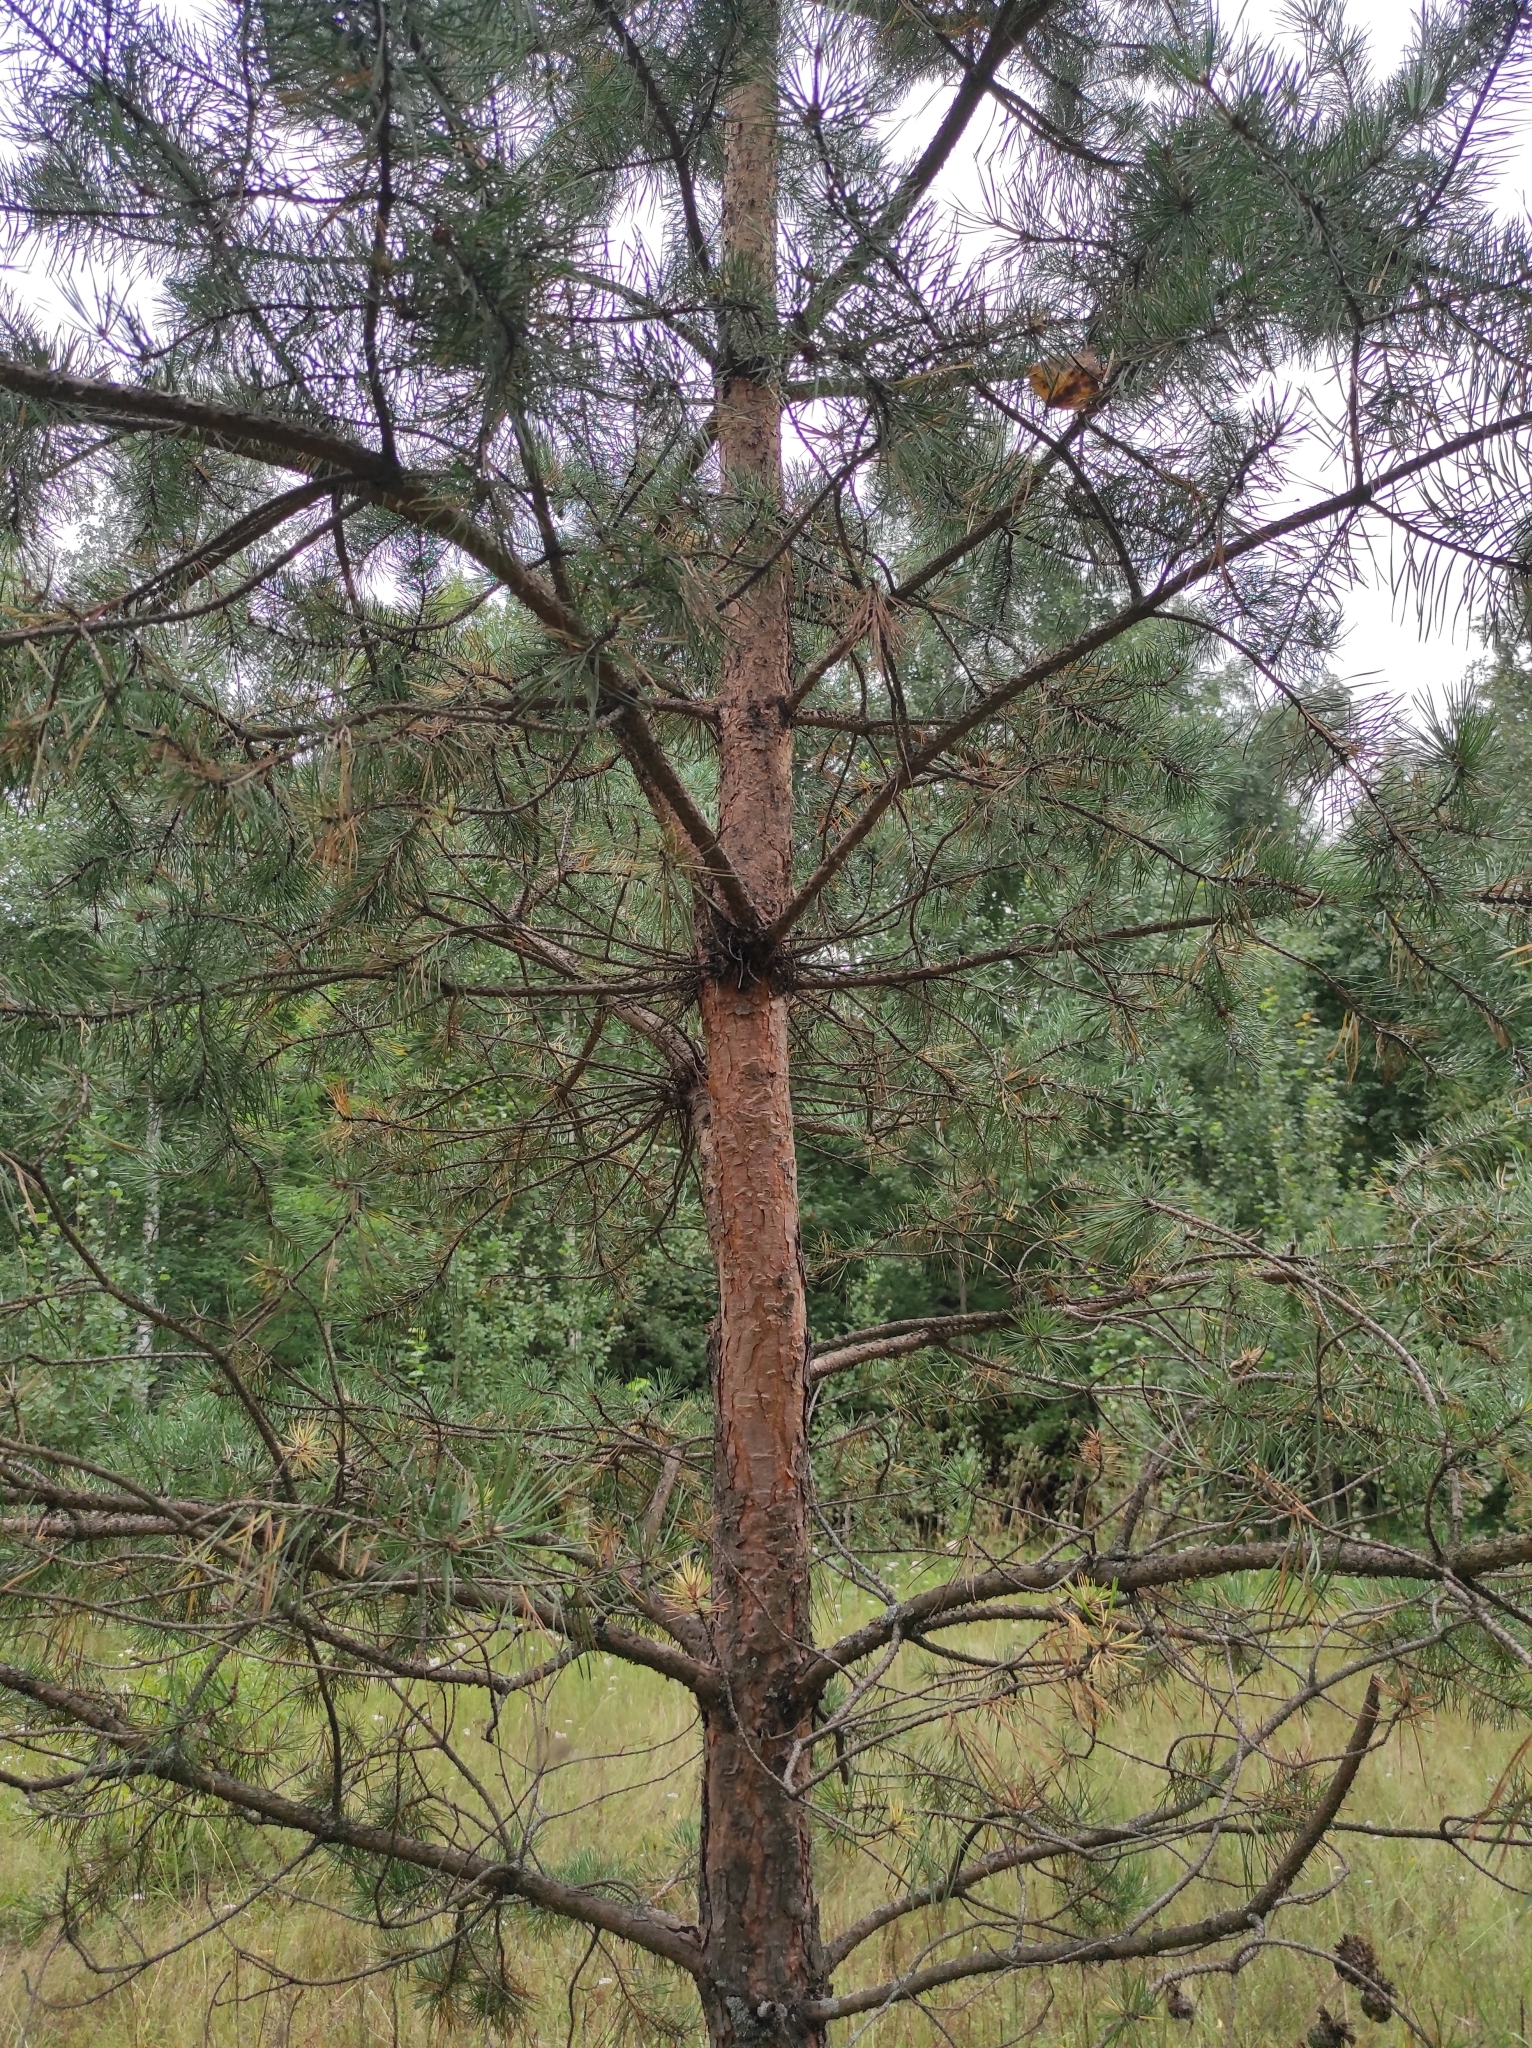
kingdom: Plantae
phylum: Tracheophyta
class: Pinopsida
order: Pinales
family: Pinaceae
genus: Pinus
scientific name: Pinus sylvestris
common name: Scots pine
